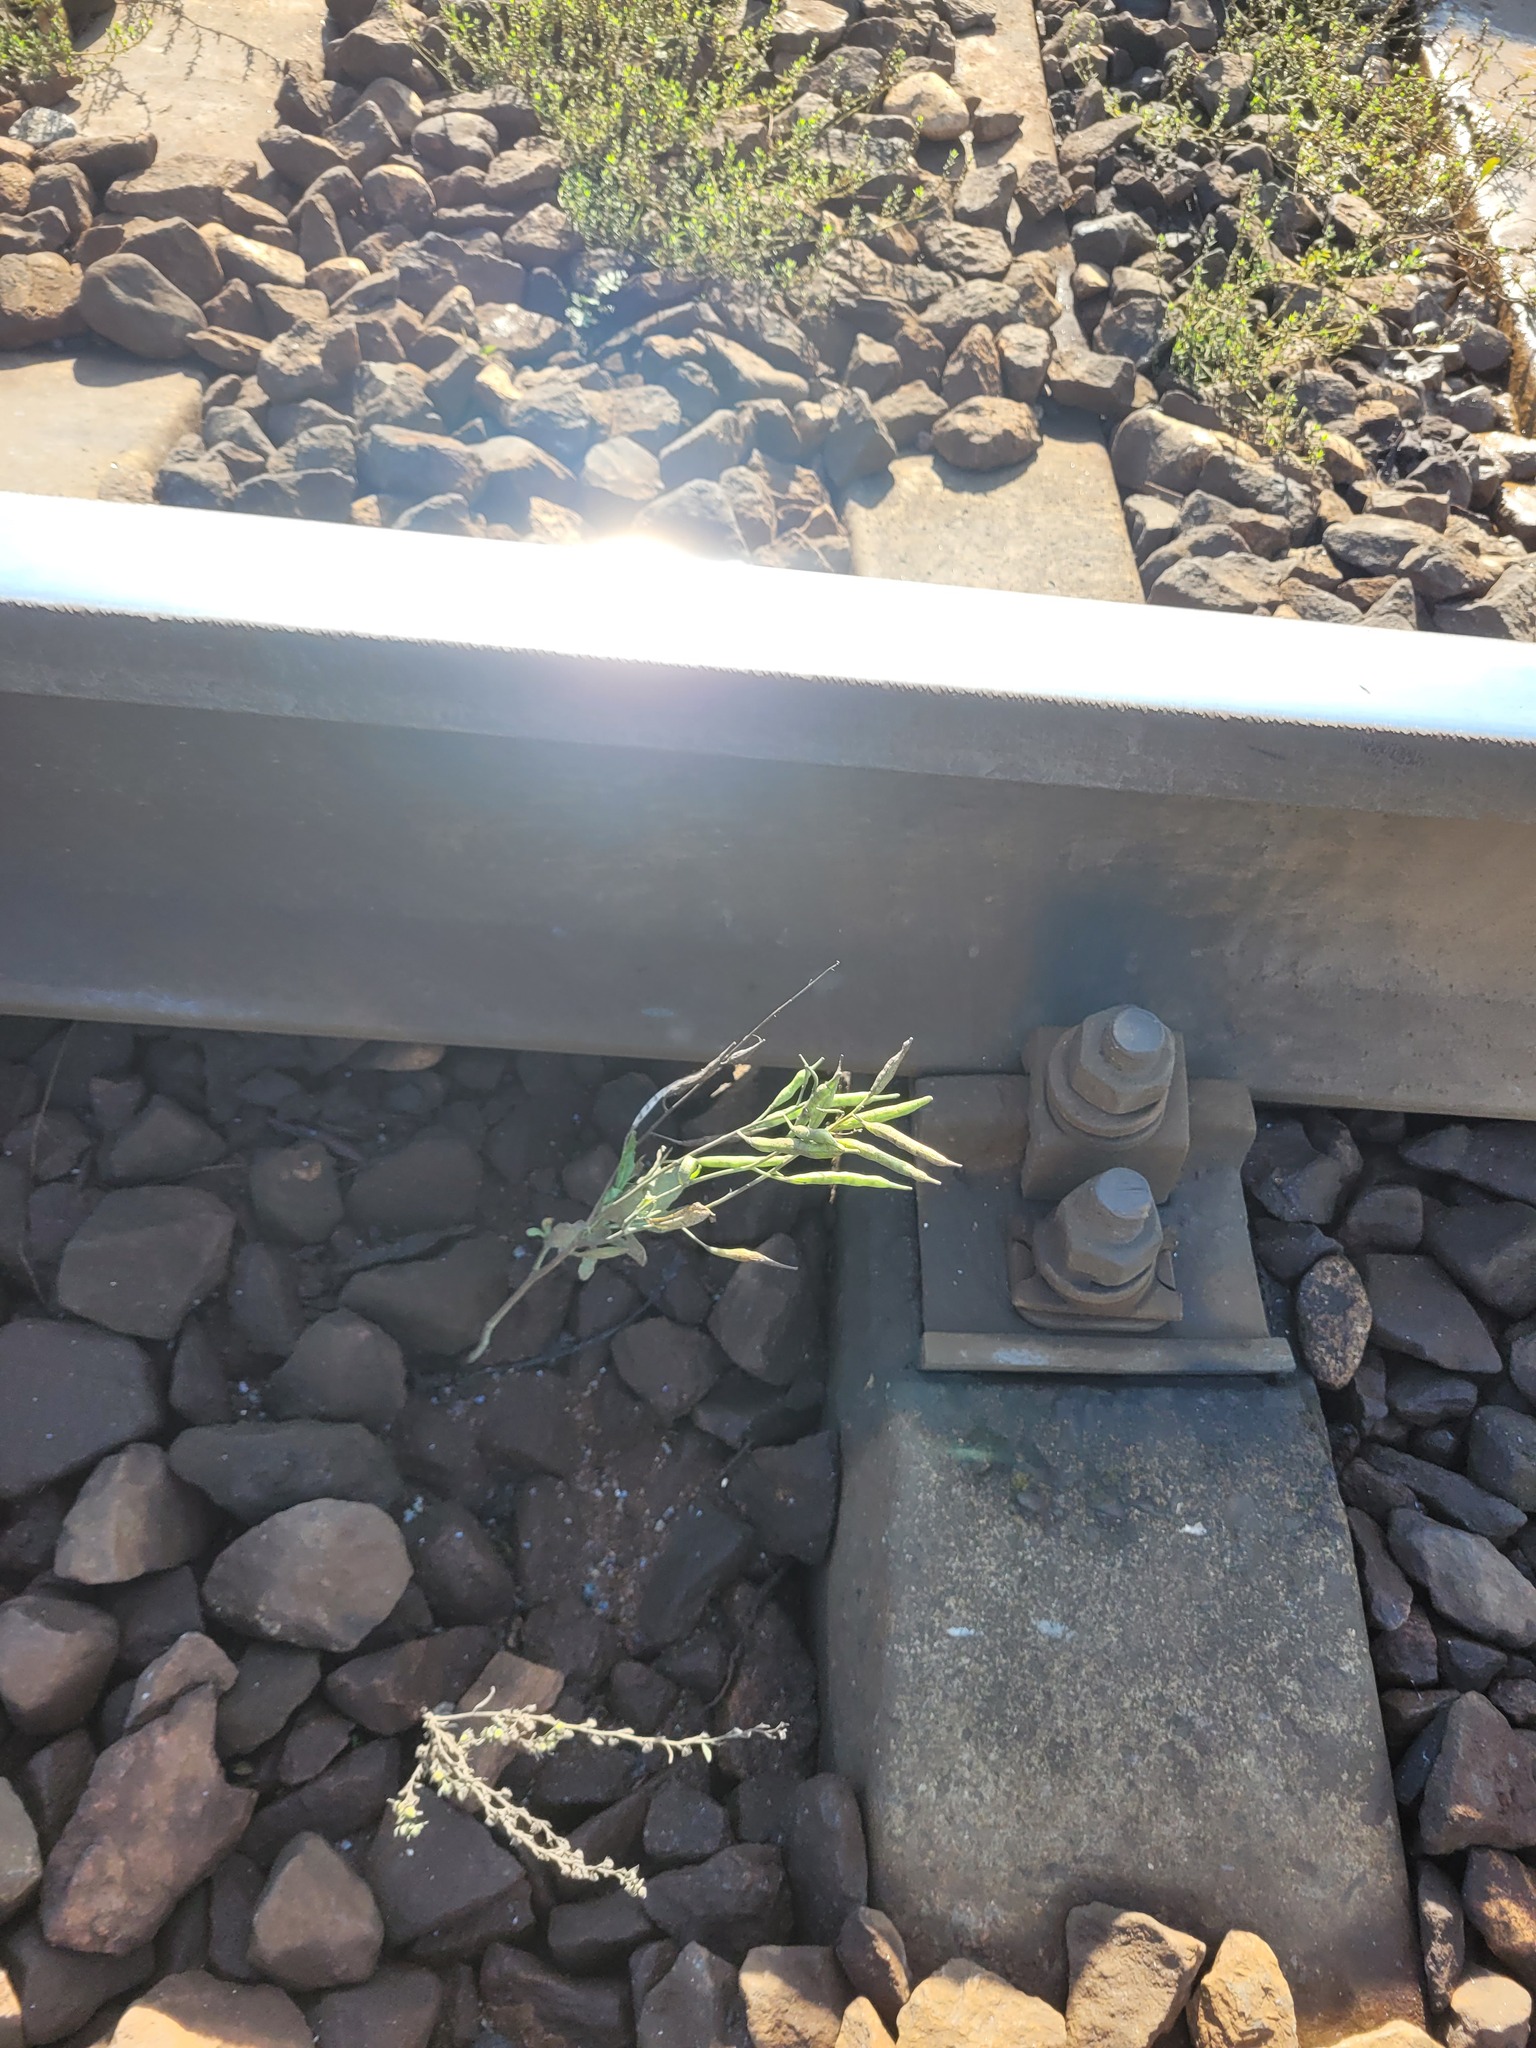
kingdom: Plantae
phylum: Tracheophyta
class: Magnoliopsida
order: Brassicales
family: Brassicaceae
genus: Brassica
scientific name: Brassica napus
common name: Rape
